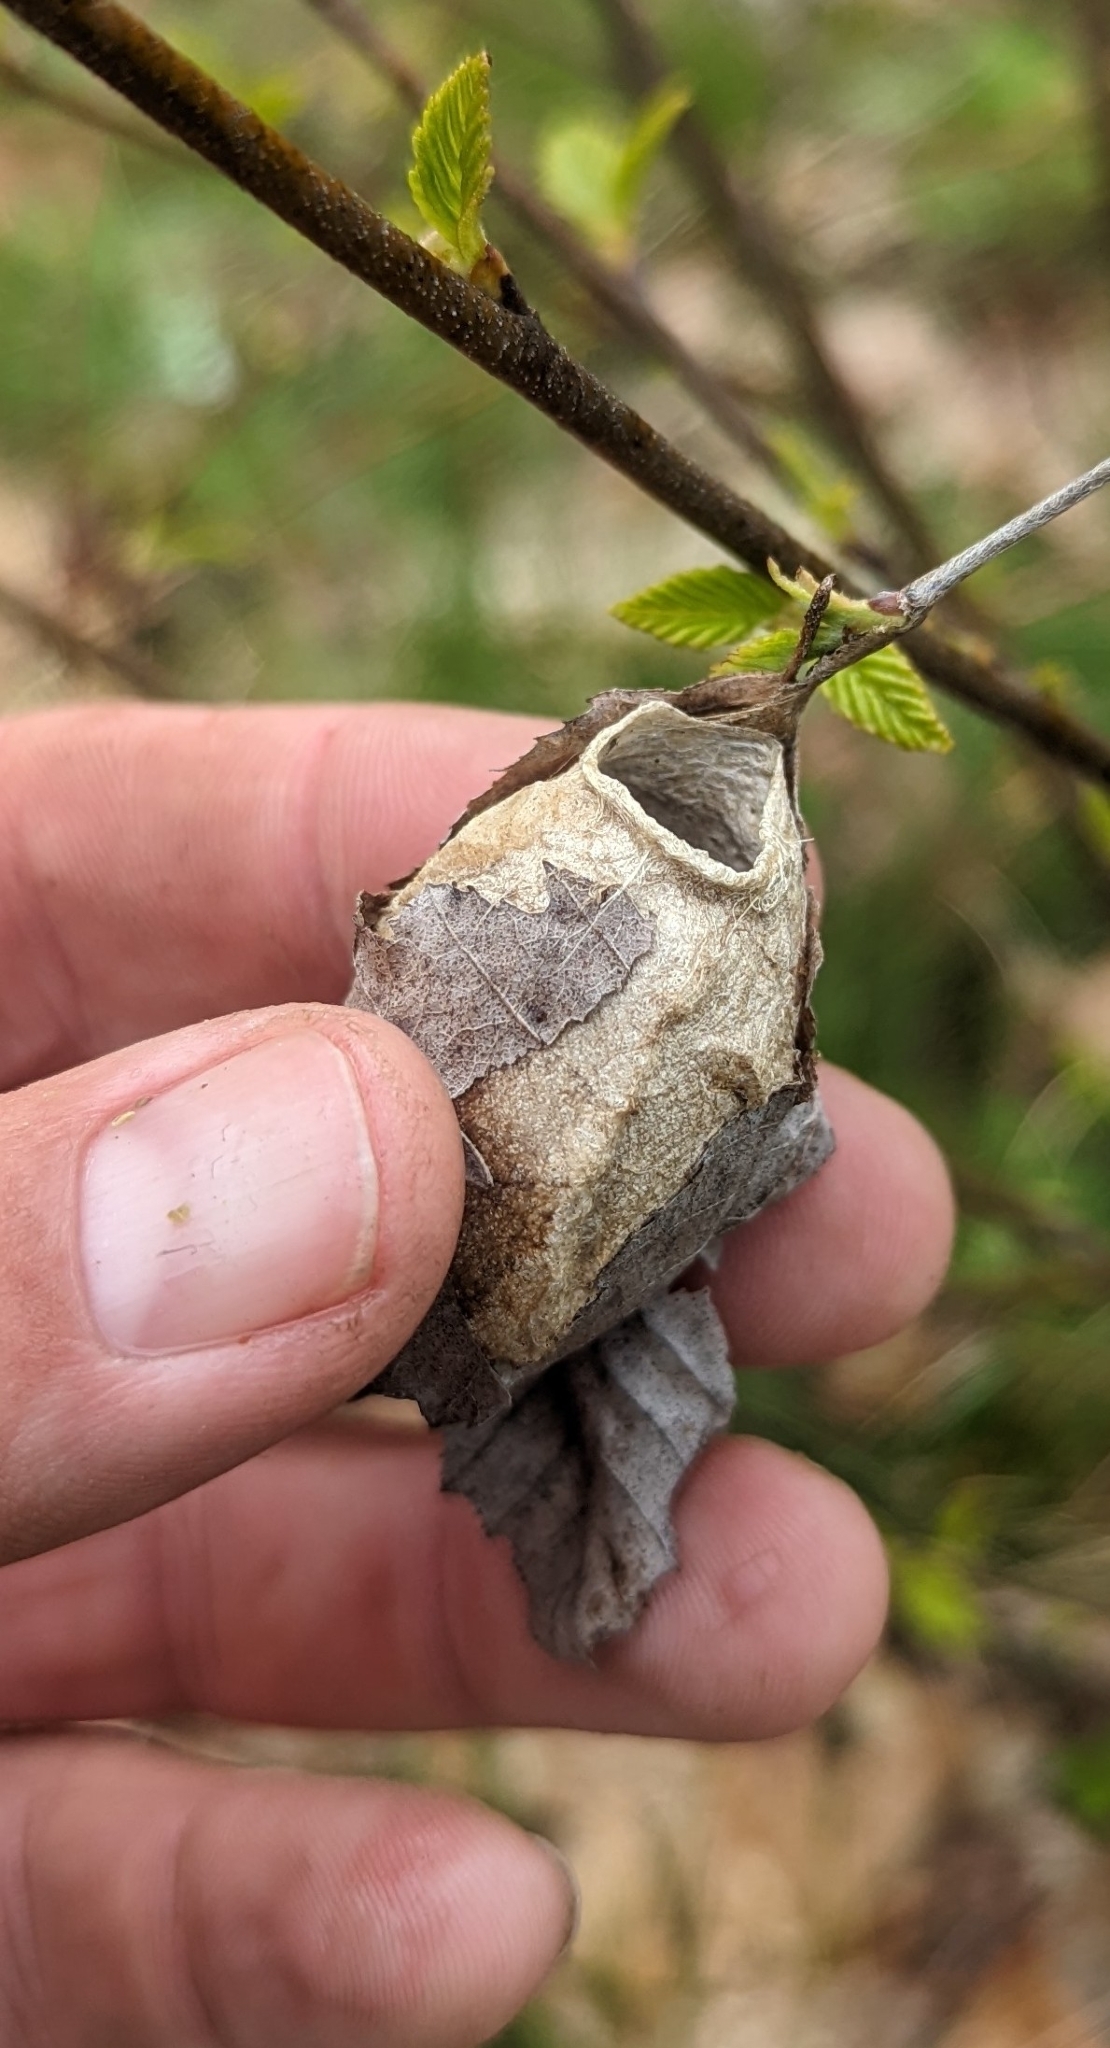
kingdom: Animalia
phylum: Arthropoda
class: Insecta
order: Lepidoptera
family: Saturniidae
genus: Antheraea
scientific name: Antheraea polyphemus
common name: Polyphemus moth
